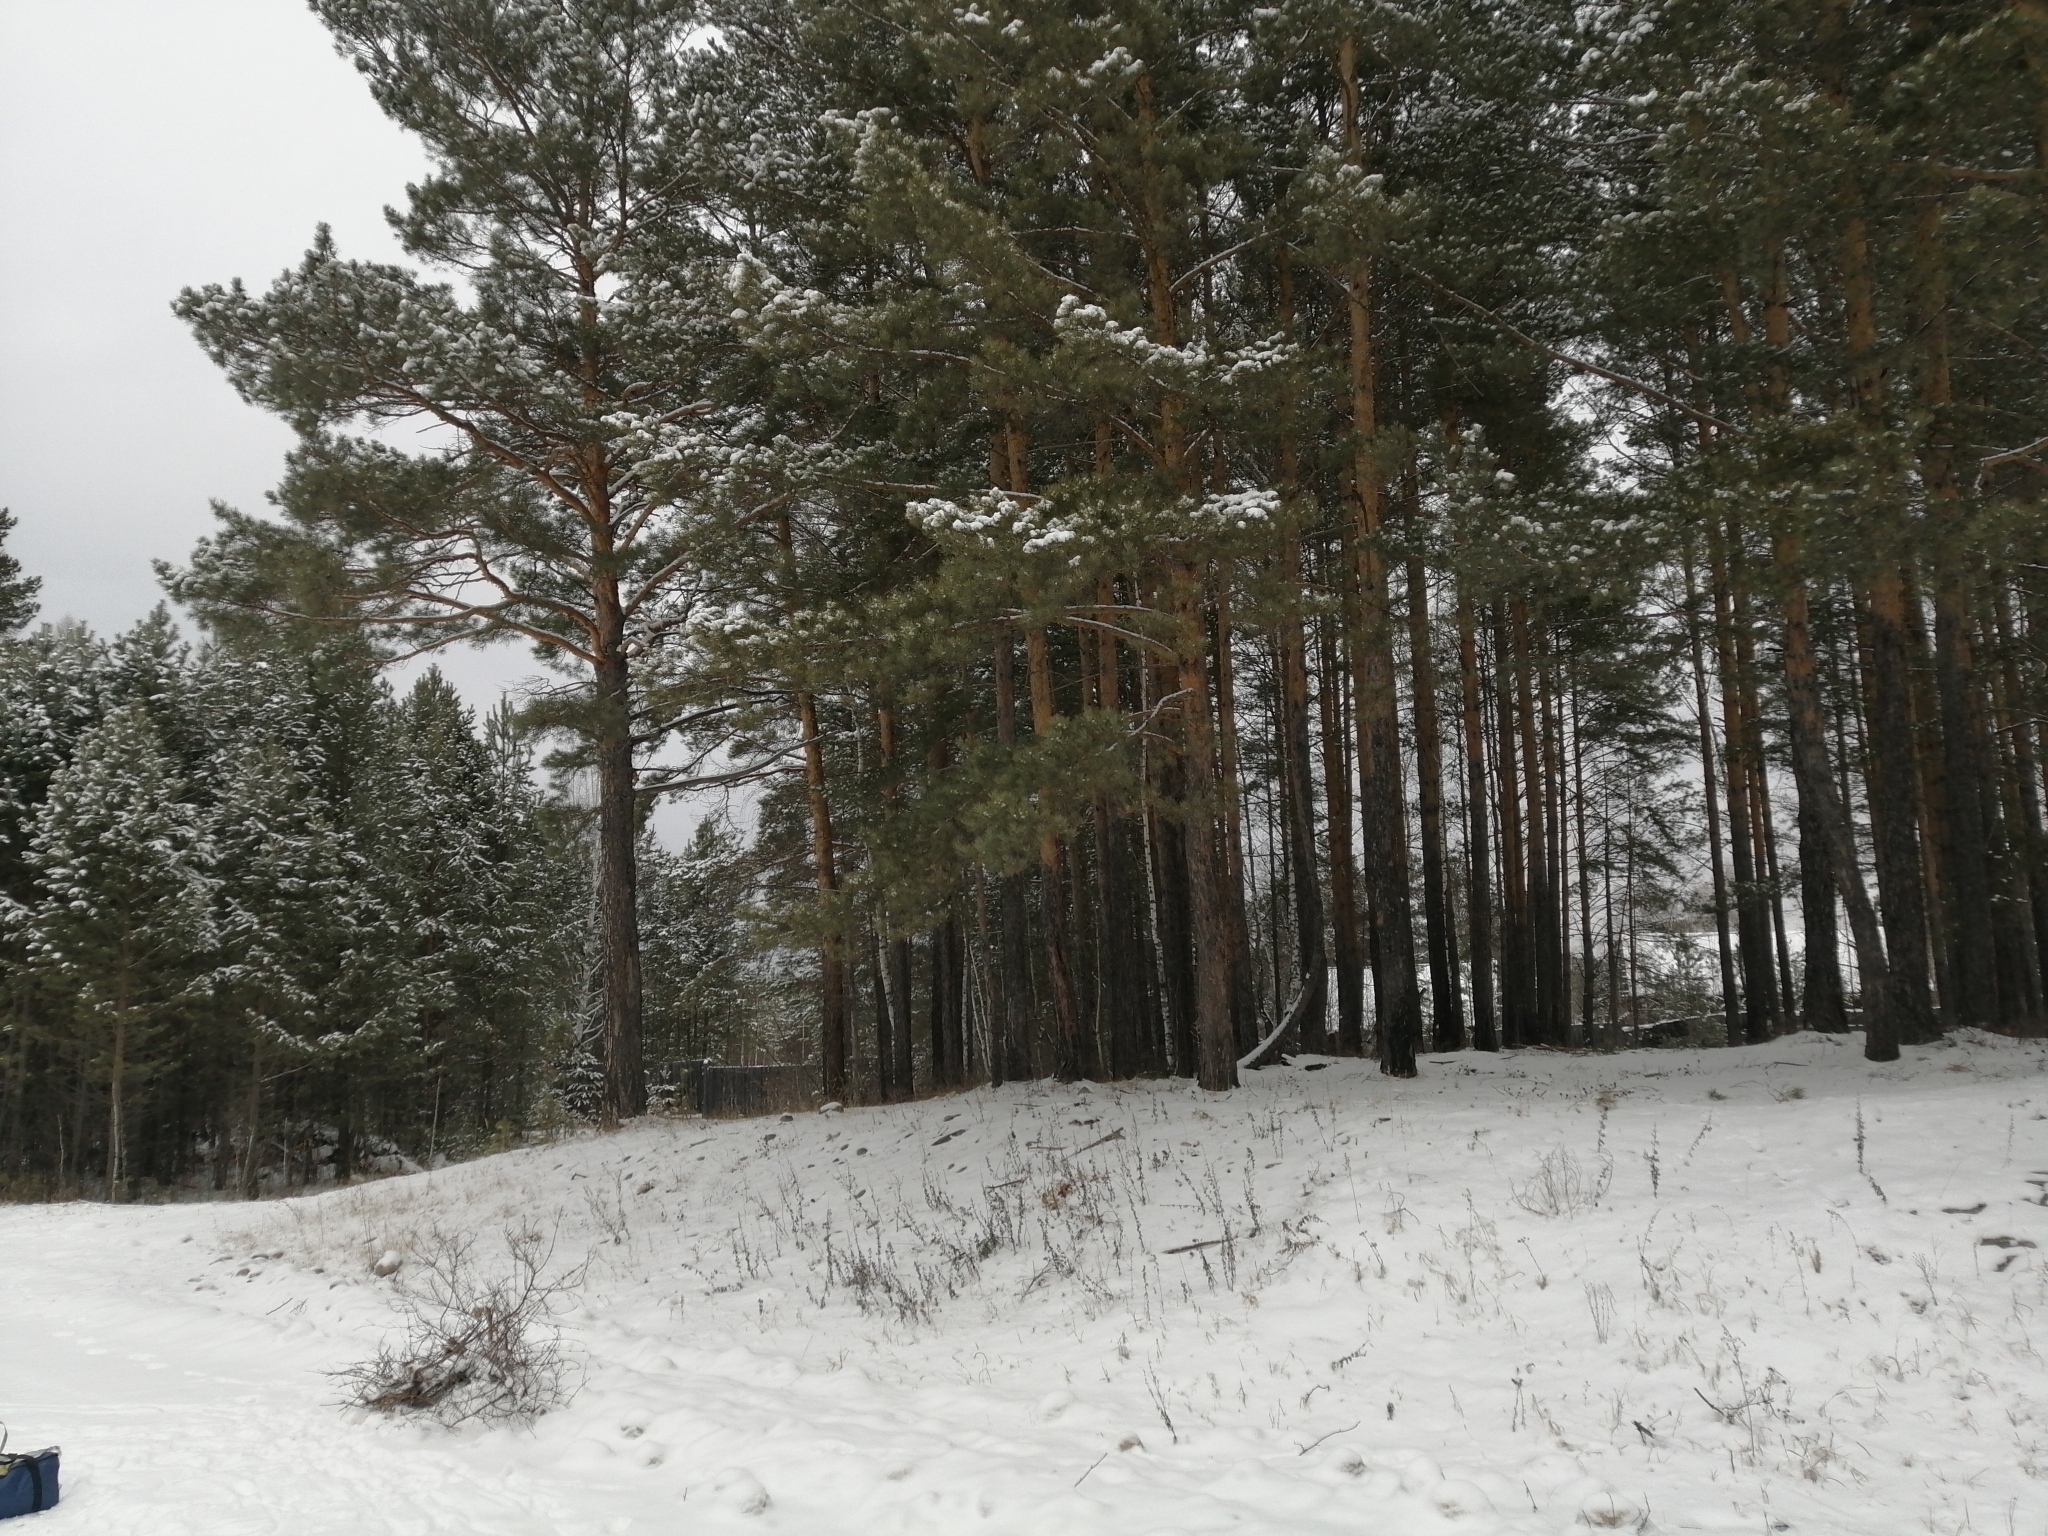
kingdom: Plantae
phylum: Tracheophyta
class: Pinopsida
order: Pinales
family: Pinaceae
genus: Pinus
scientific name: Pinus sylvestris
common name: Scots pine
